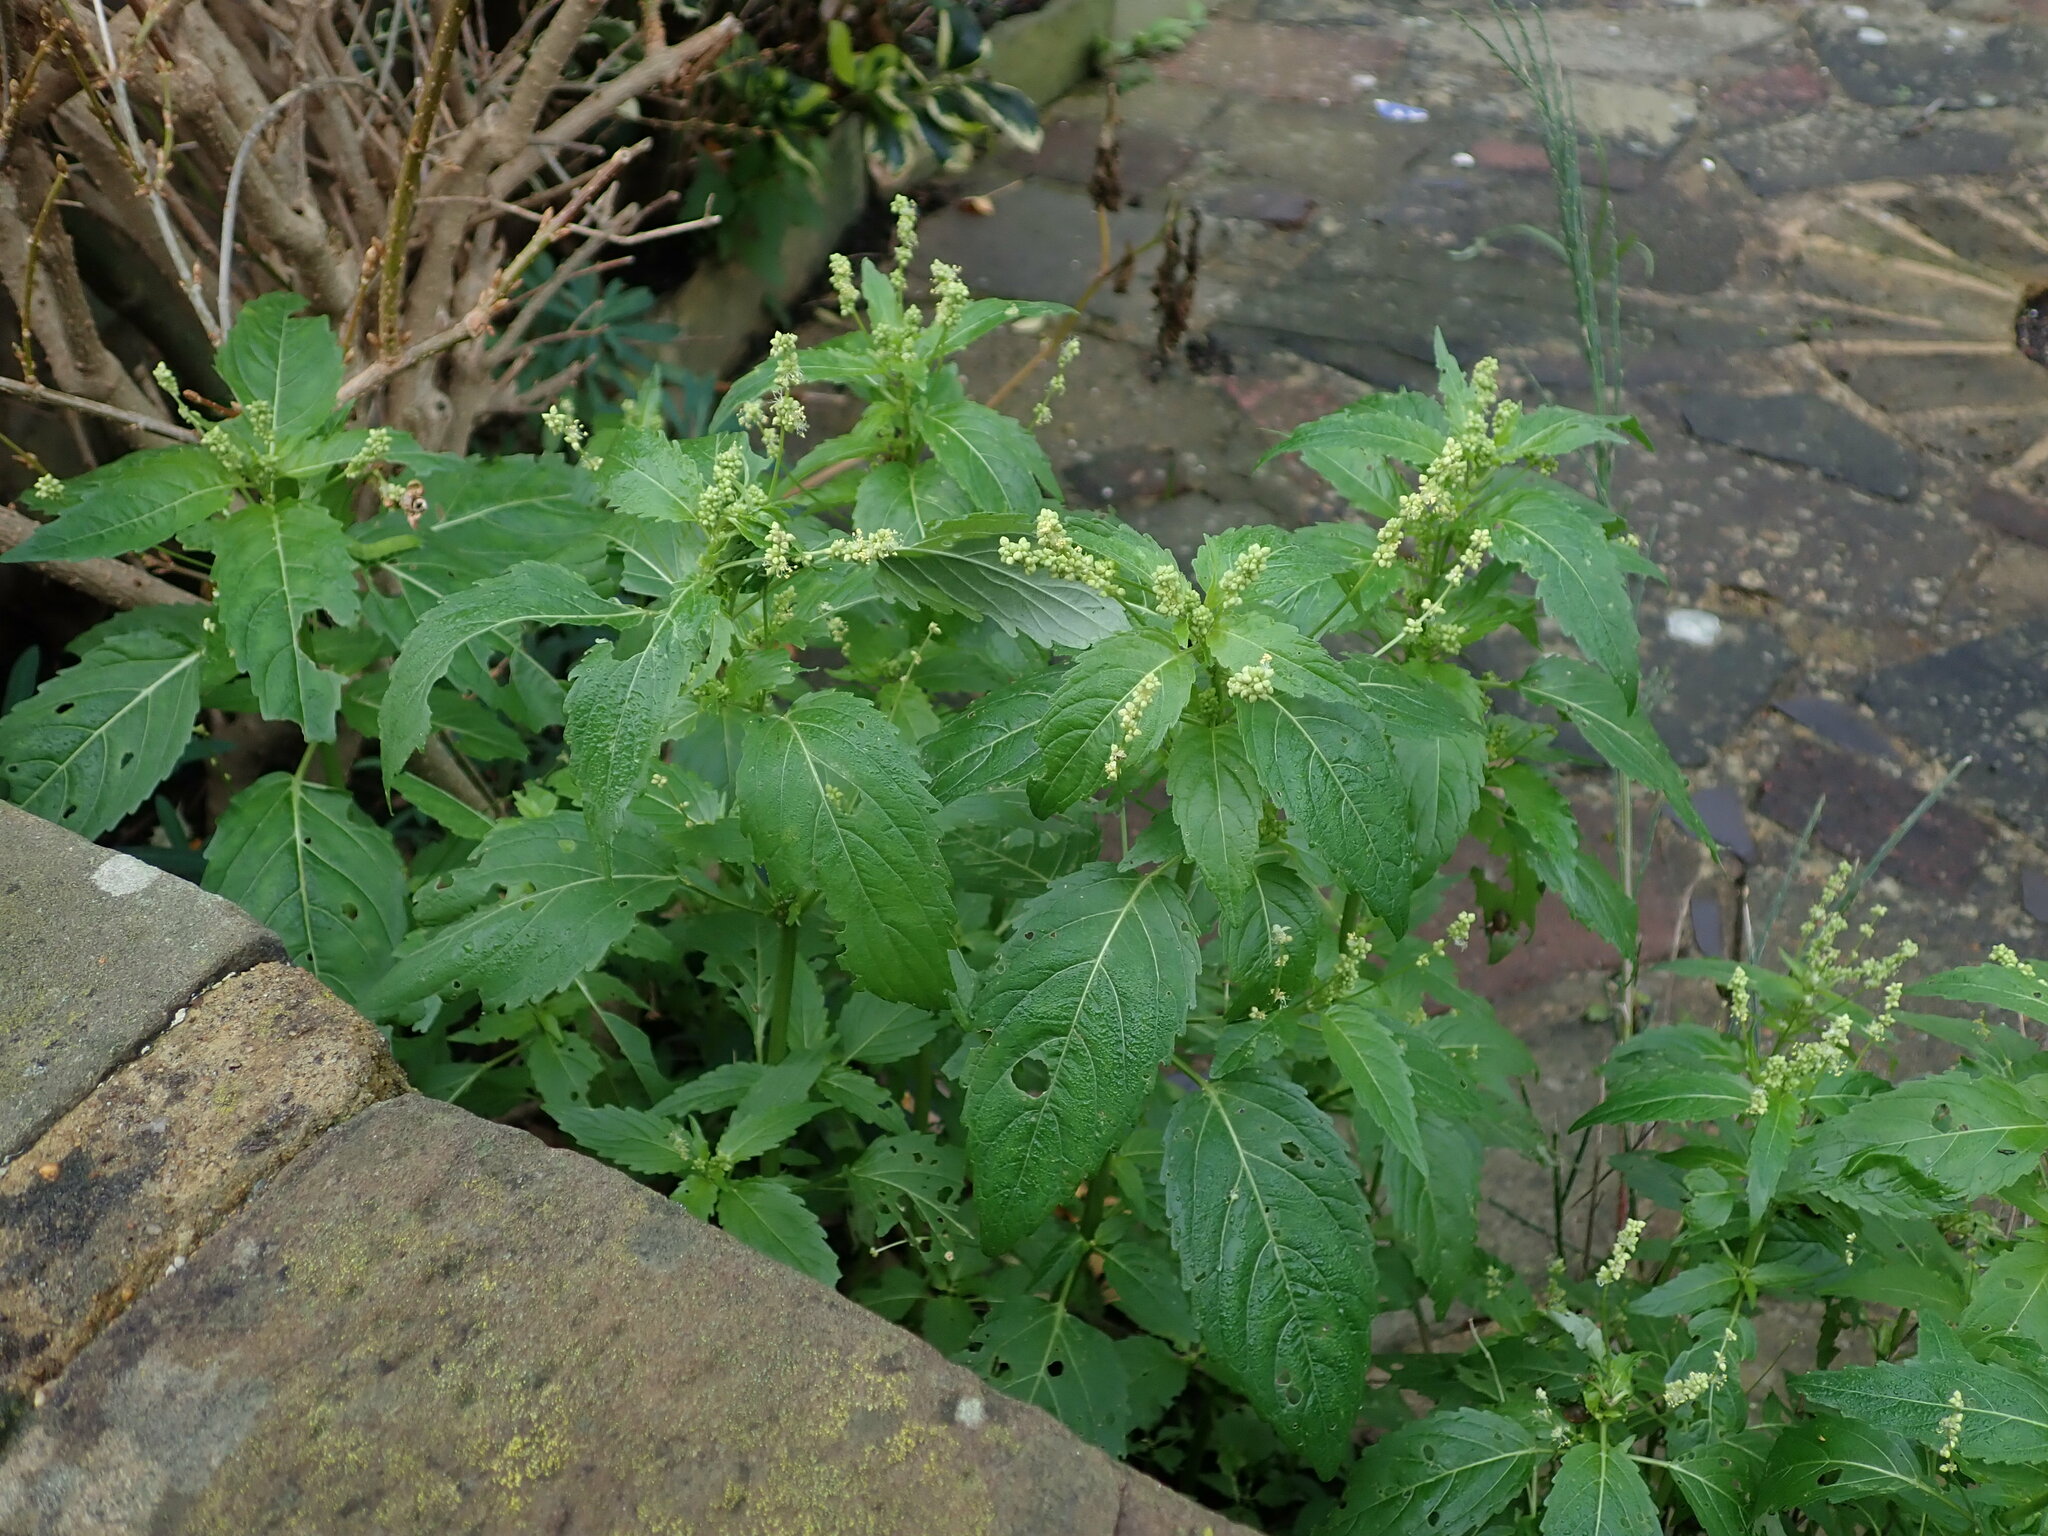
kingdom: Plantae
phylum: Tracheophyta
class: Magnoliopsida
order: Malpighiales
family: Euphorbiaceae
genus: Mercurialis
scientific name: Mercurialis annua
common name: Annual mercury
